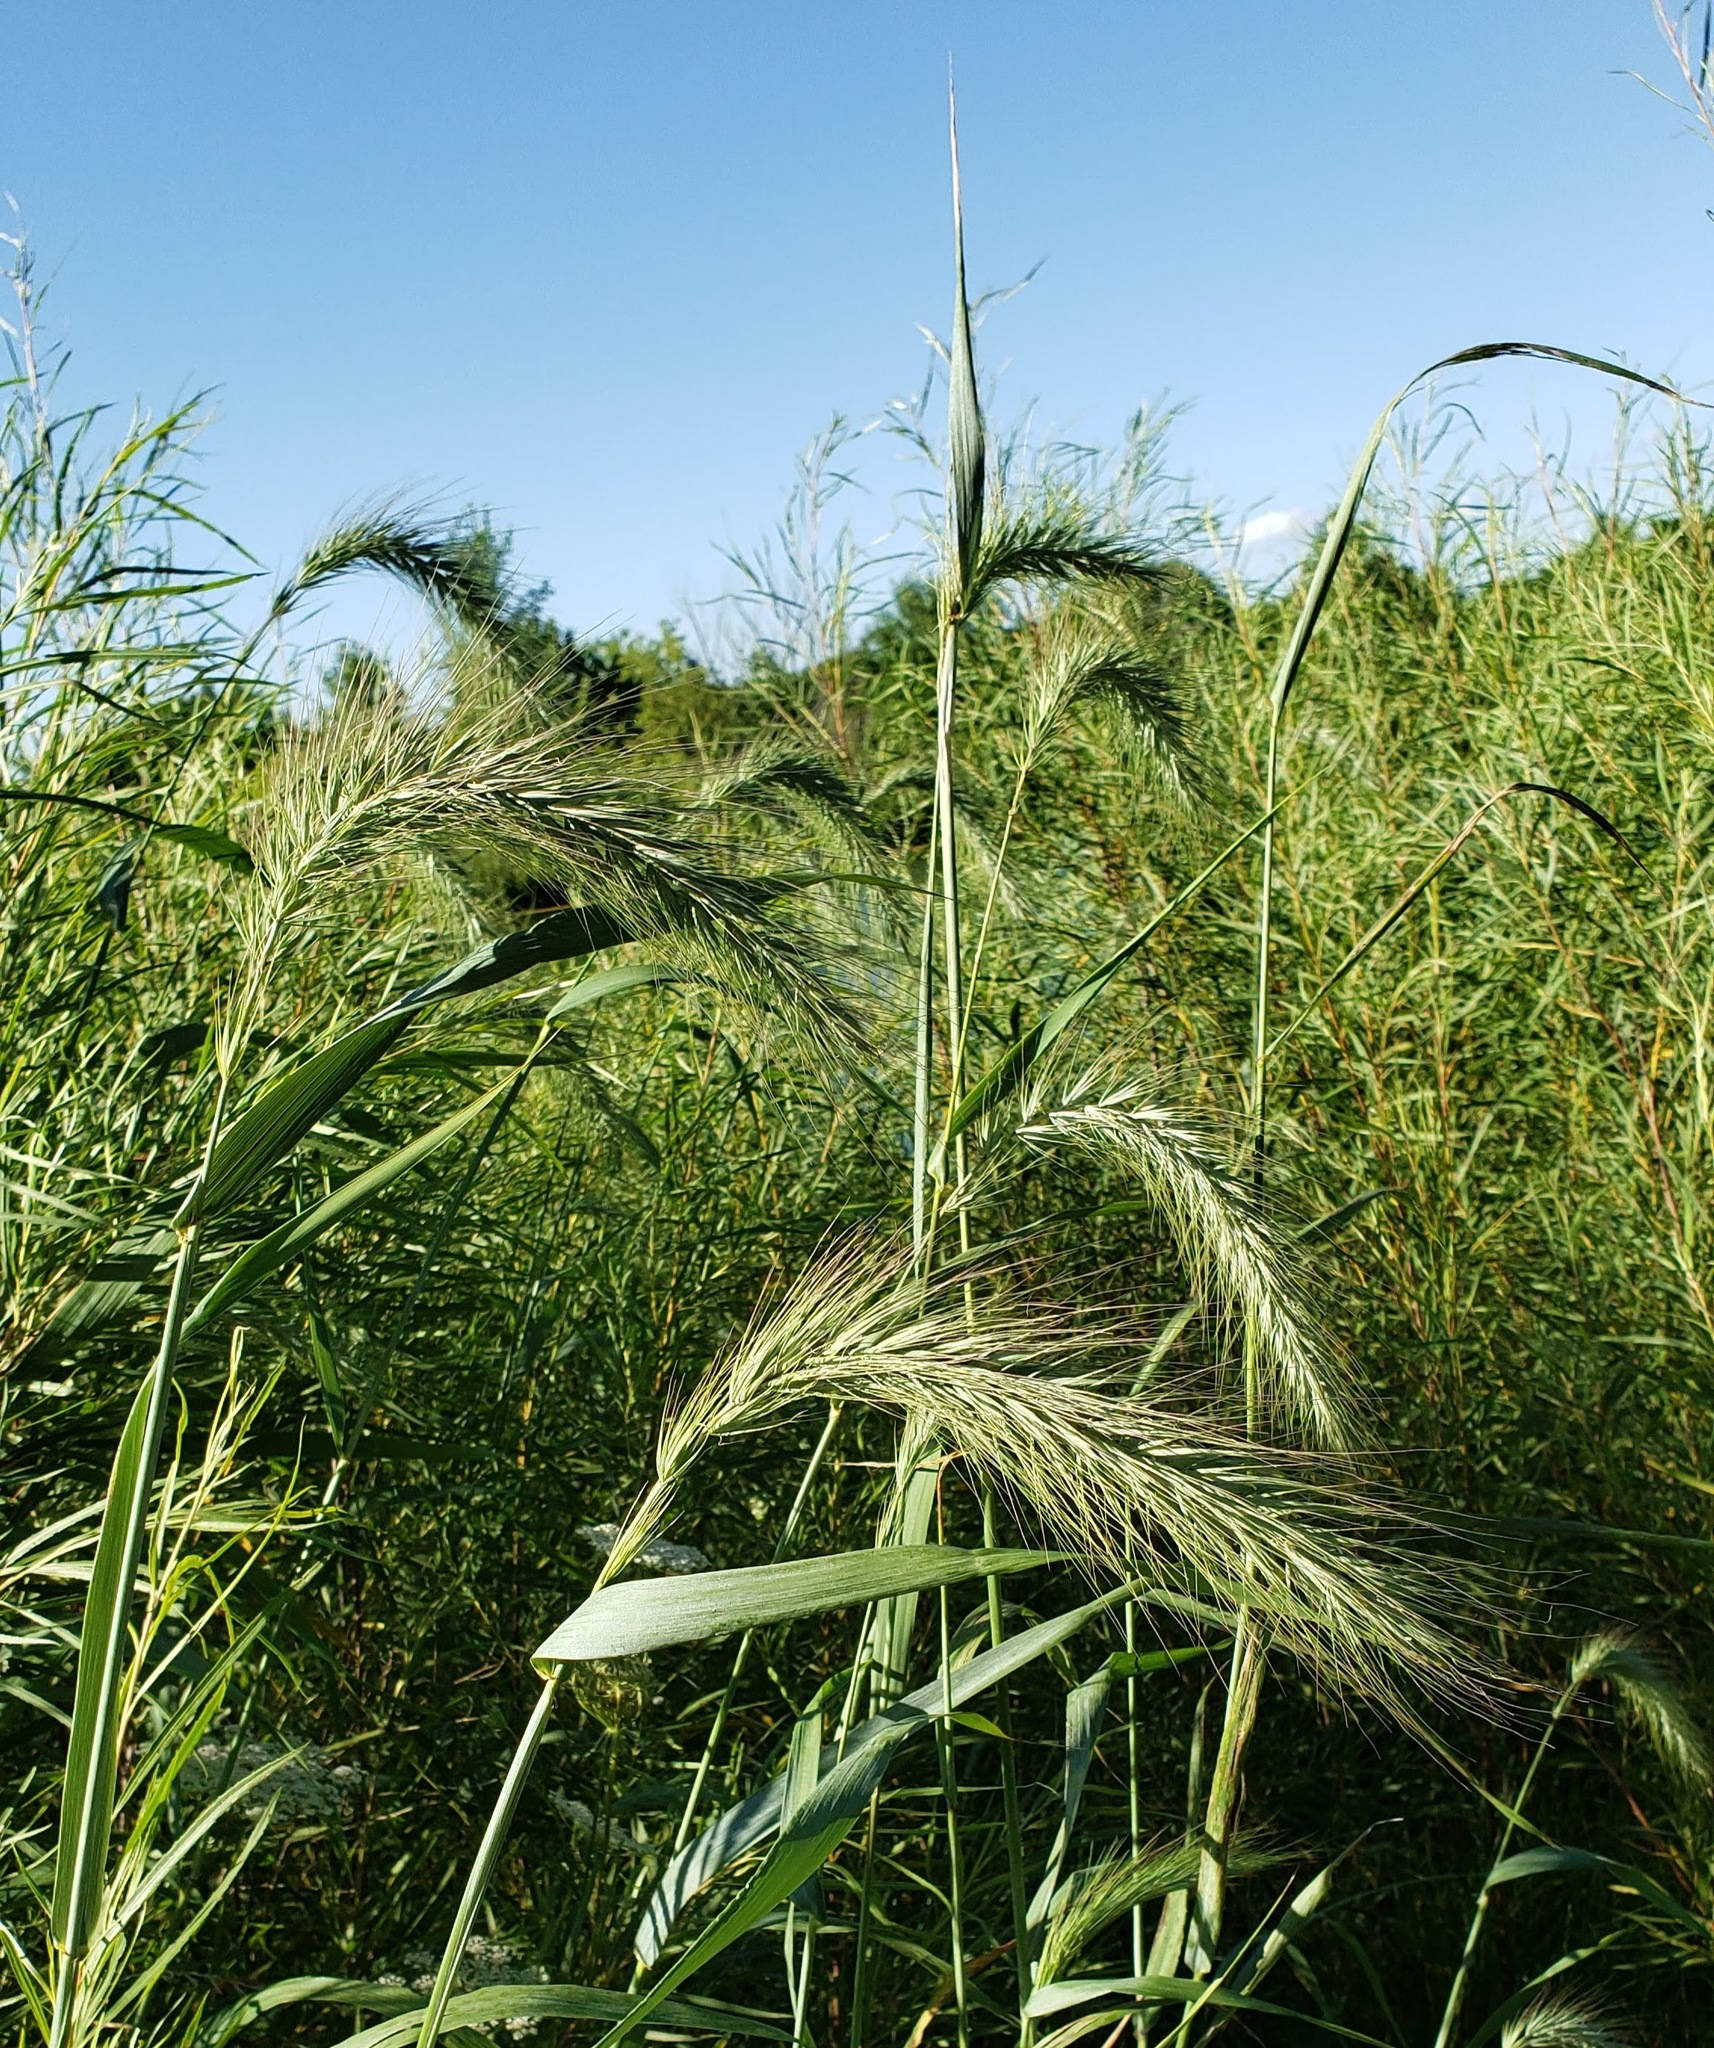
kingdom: Plantae
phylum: Tracheophyta
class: Liliopsida
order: Poales
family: Poaceae
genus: Elymus
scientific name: Elymus canadensis
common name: Canada wild rye
